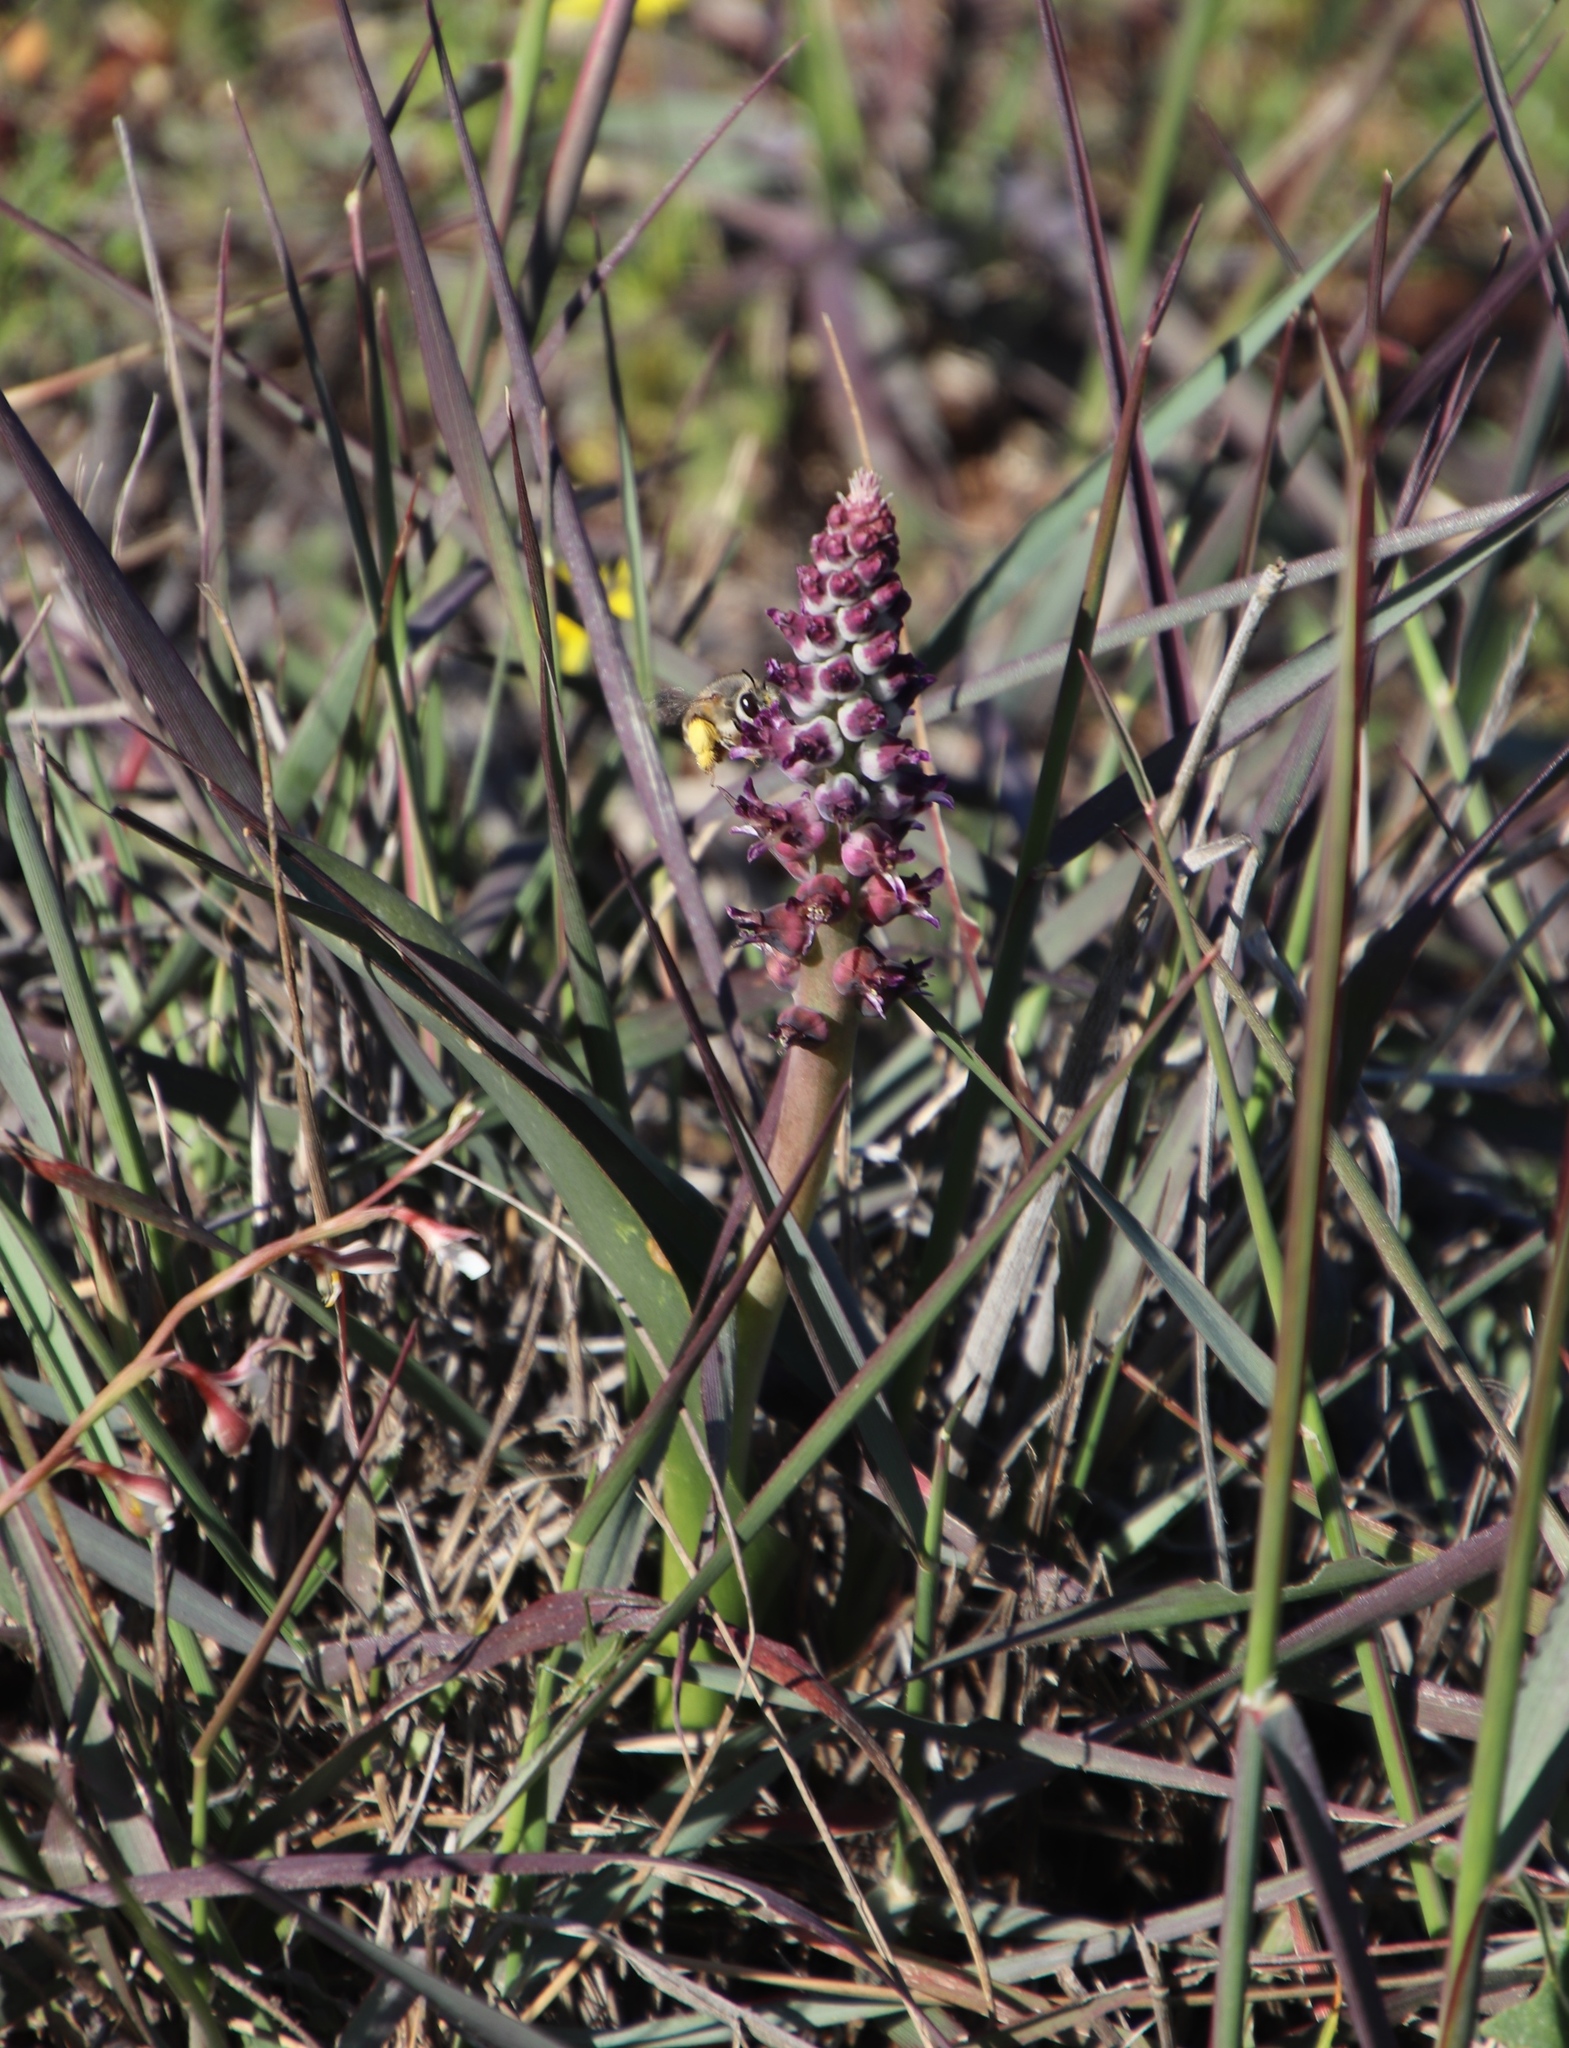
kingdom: Plantae
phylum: Tracheophyta
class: Liliopsida
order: Asparagales
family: Asparagaceae
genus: Lachenalia
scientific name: Lachenalia elegans
